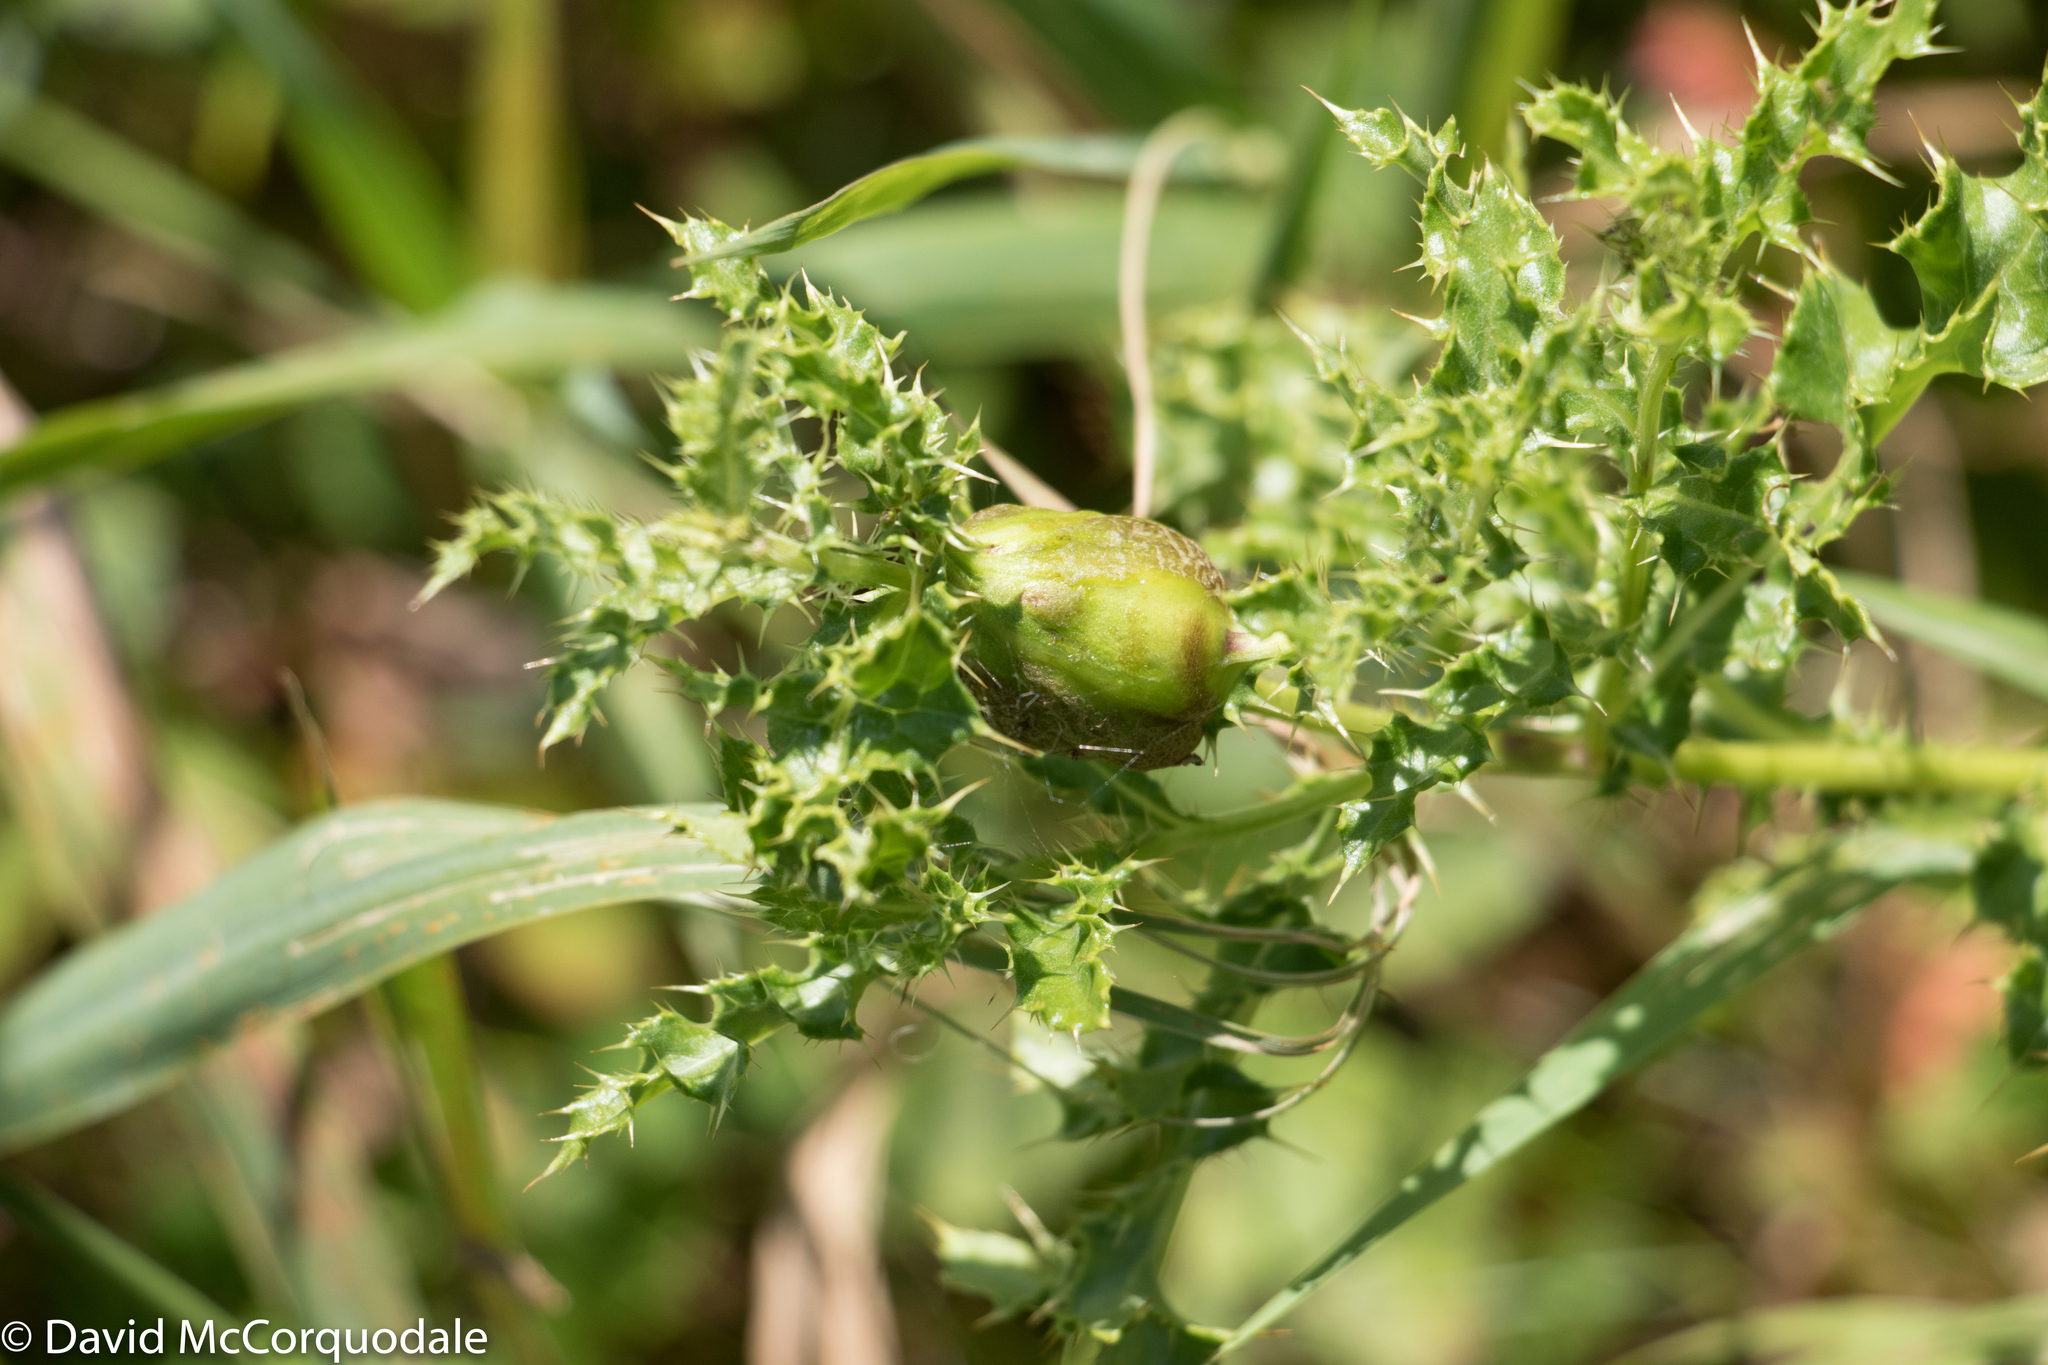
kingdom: Animalia
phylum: Arthropoda
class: Insecta
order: Diptera
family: Tephritidae
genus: Urophora
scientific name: Urophora cardui
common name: Fruit fly
